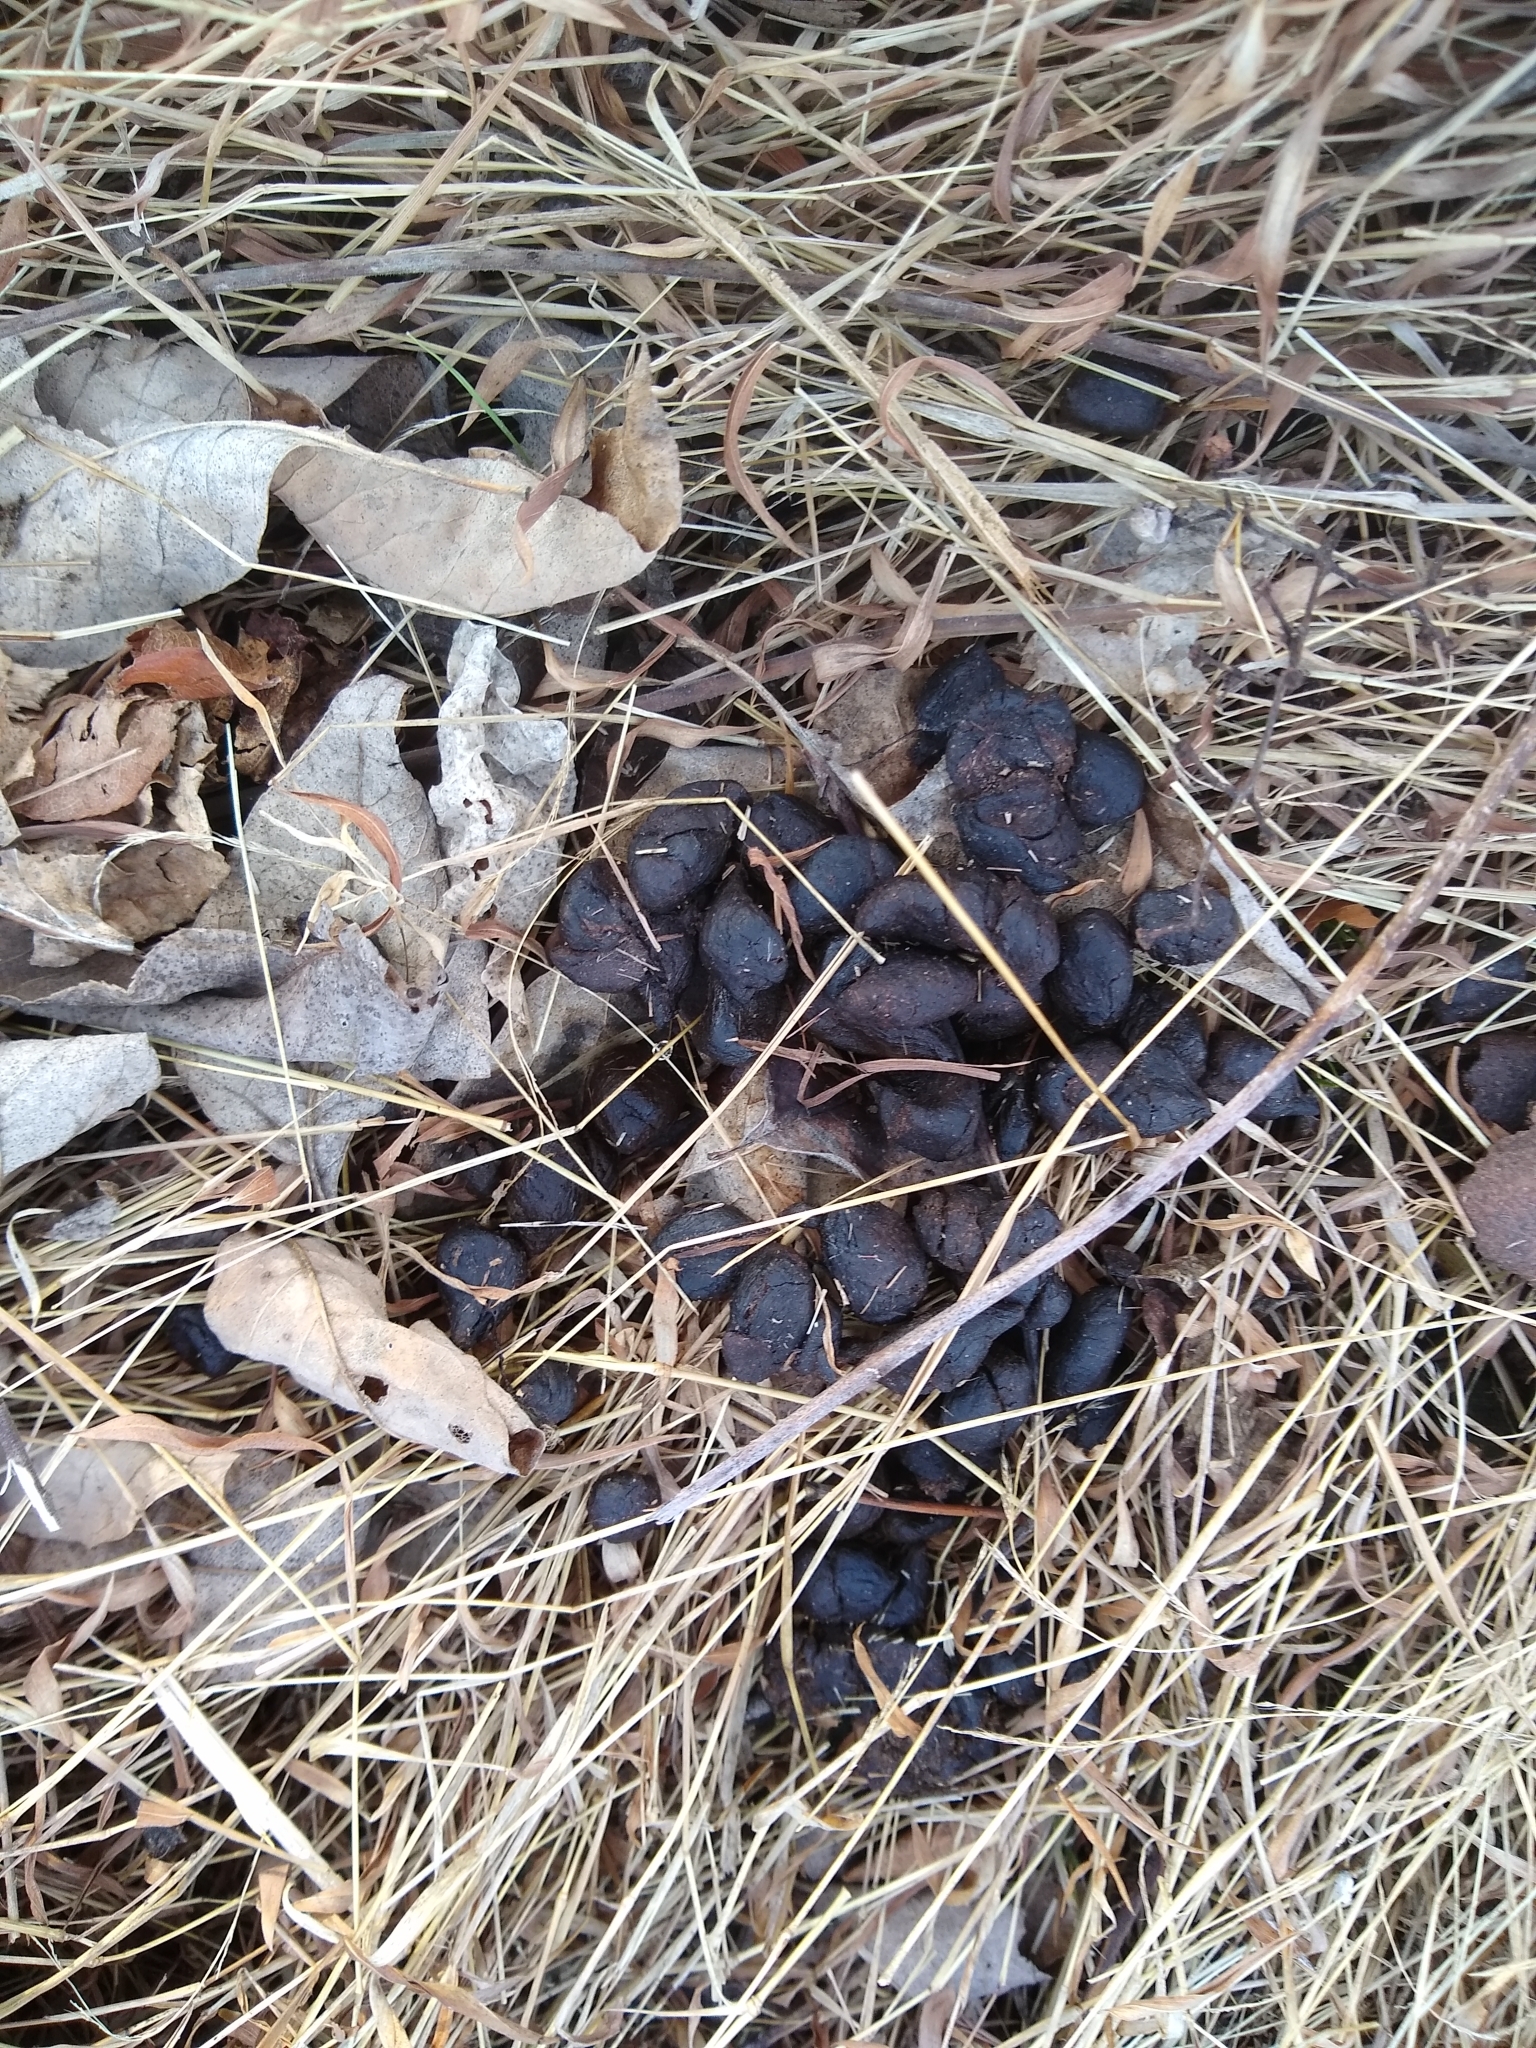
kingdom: Animalia
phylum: Chordata
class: Mammalia
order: Artiodactyla
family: Cervidae
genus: Odocoileus
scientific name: Odocoileus virginianus
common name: White-tailed deer
